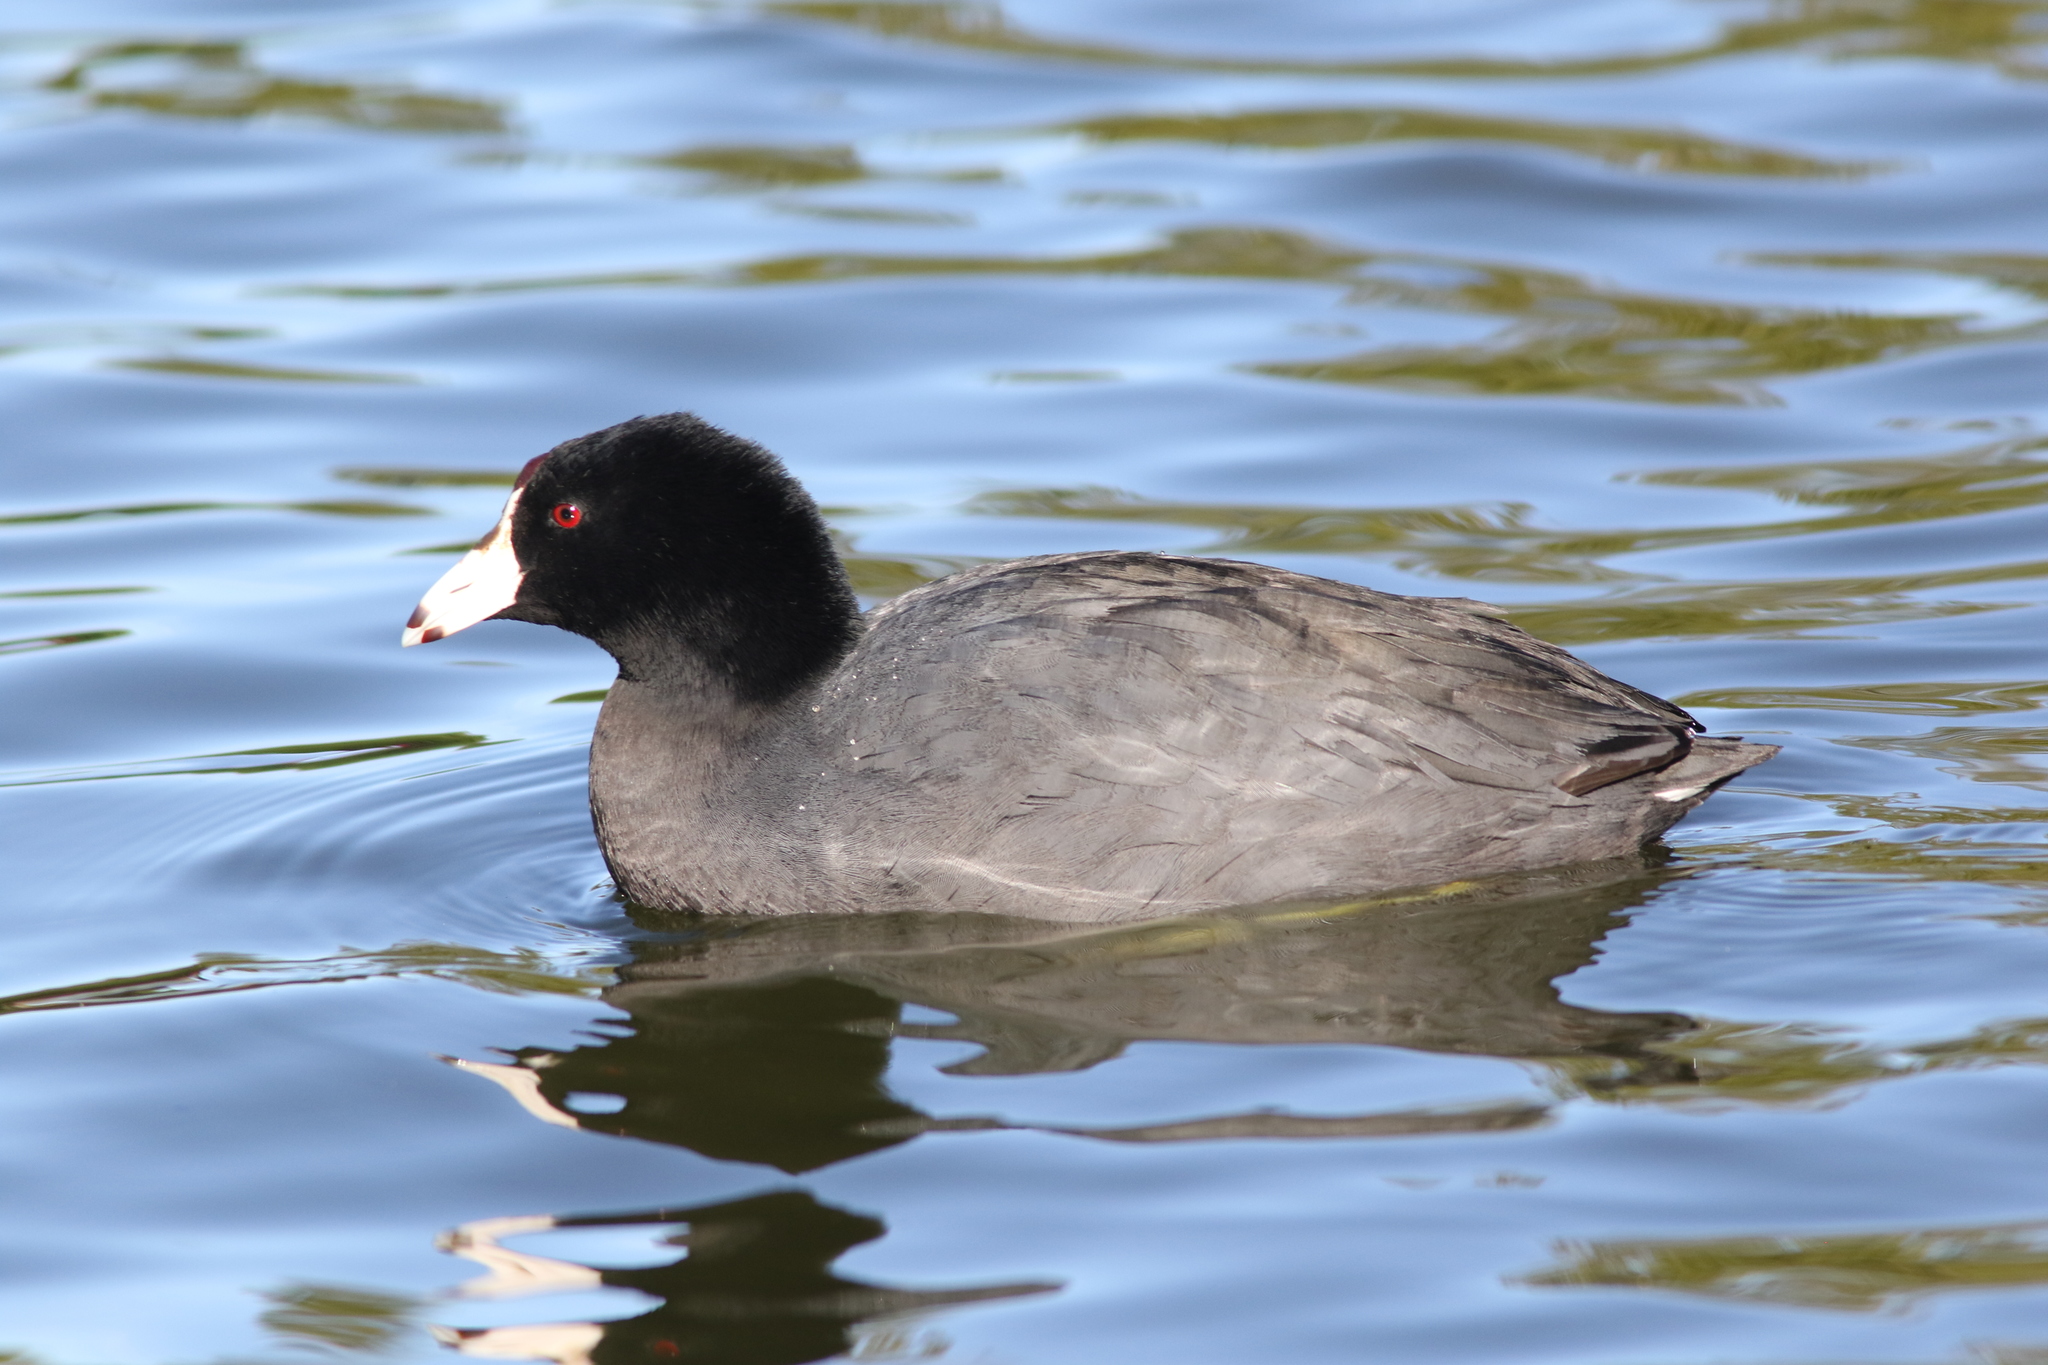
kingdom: Animalia
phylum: Chordata
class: Aves
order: Gruiformes
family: Rallidae
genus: Fulica
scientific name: Fulica americana
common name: American coot
